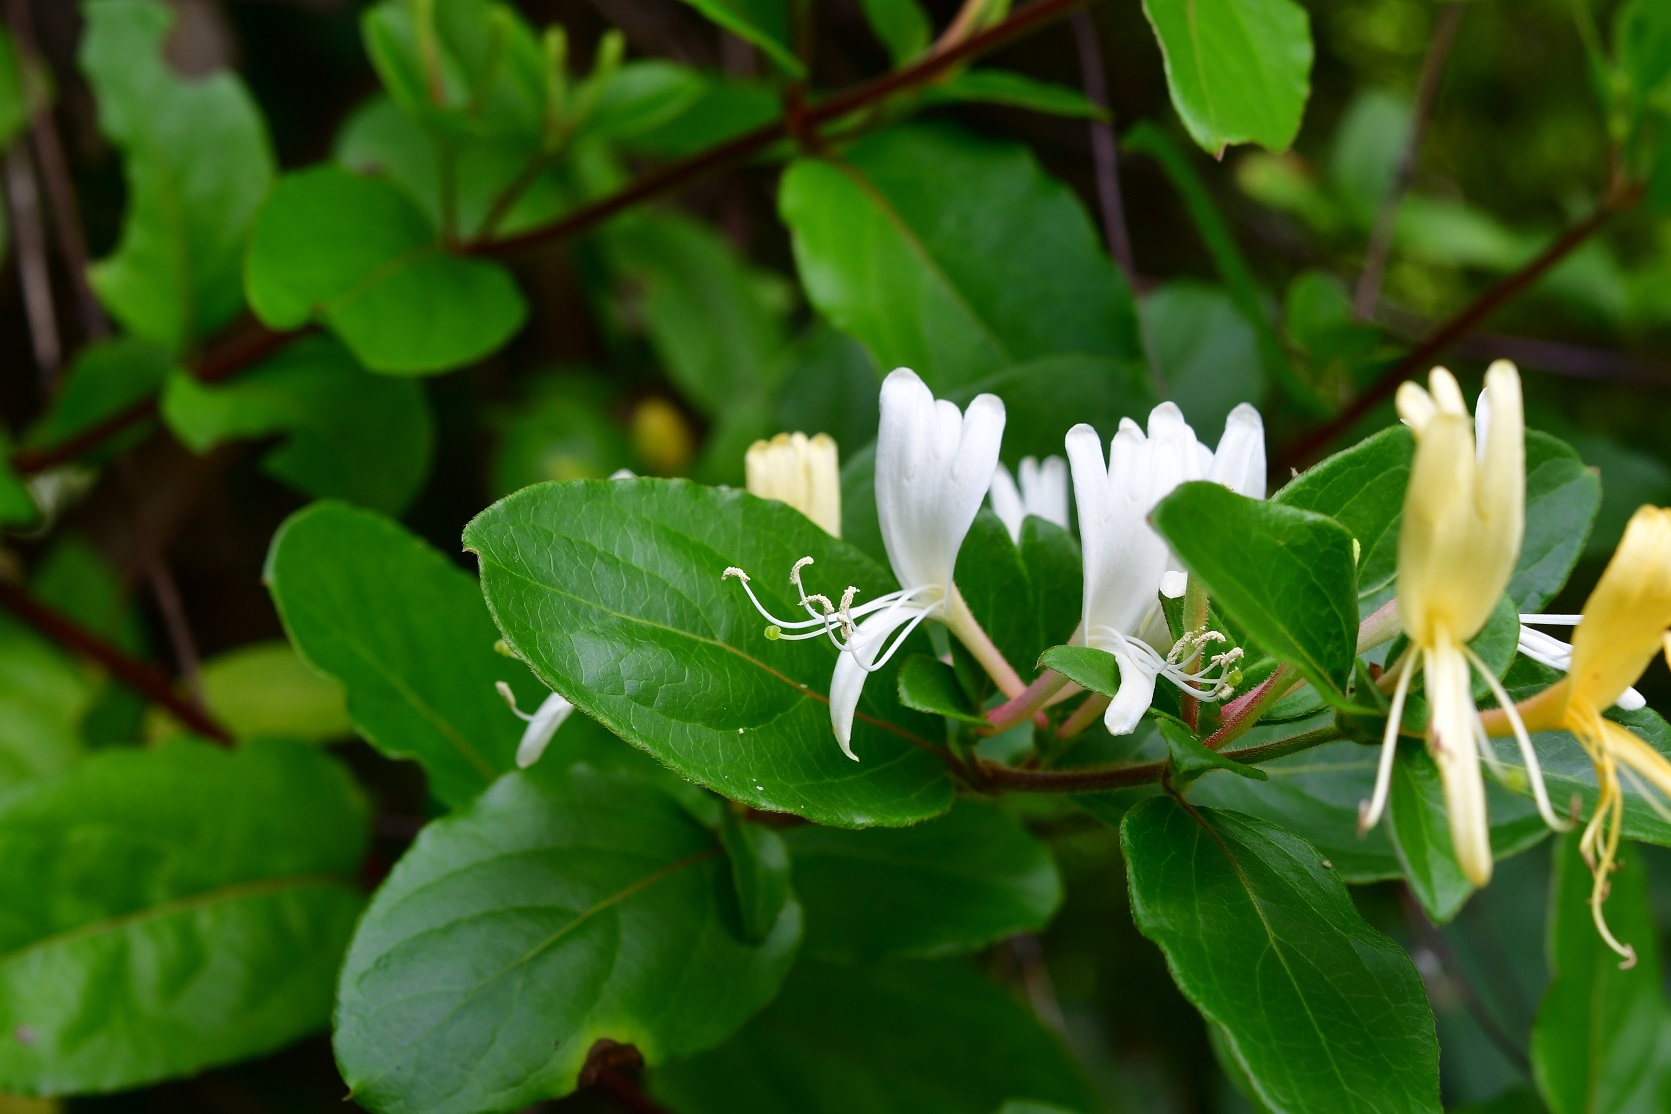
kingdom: Plantae
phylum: Tracheophyta
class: Magnoliopsida
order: Dipsacales
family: Caprifoliaceae
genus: Lonicera
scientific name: Lonicera japonica
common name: Japanese honeysuckle
